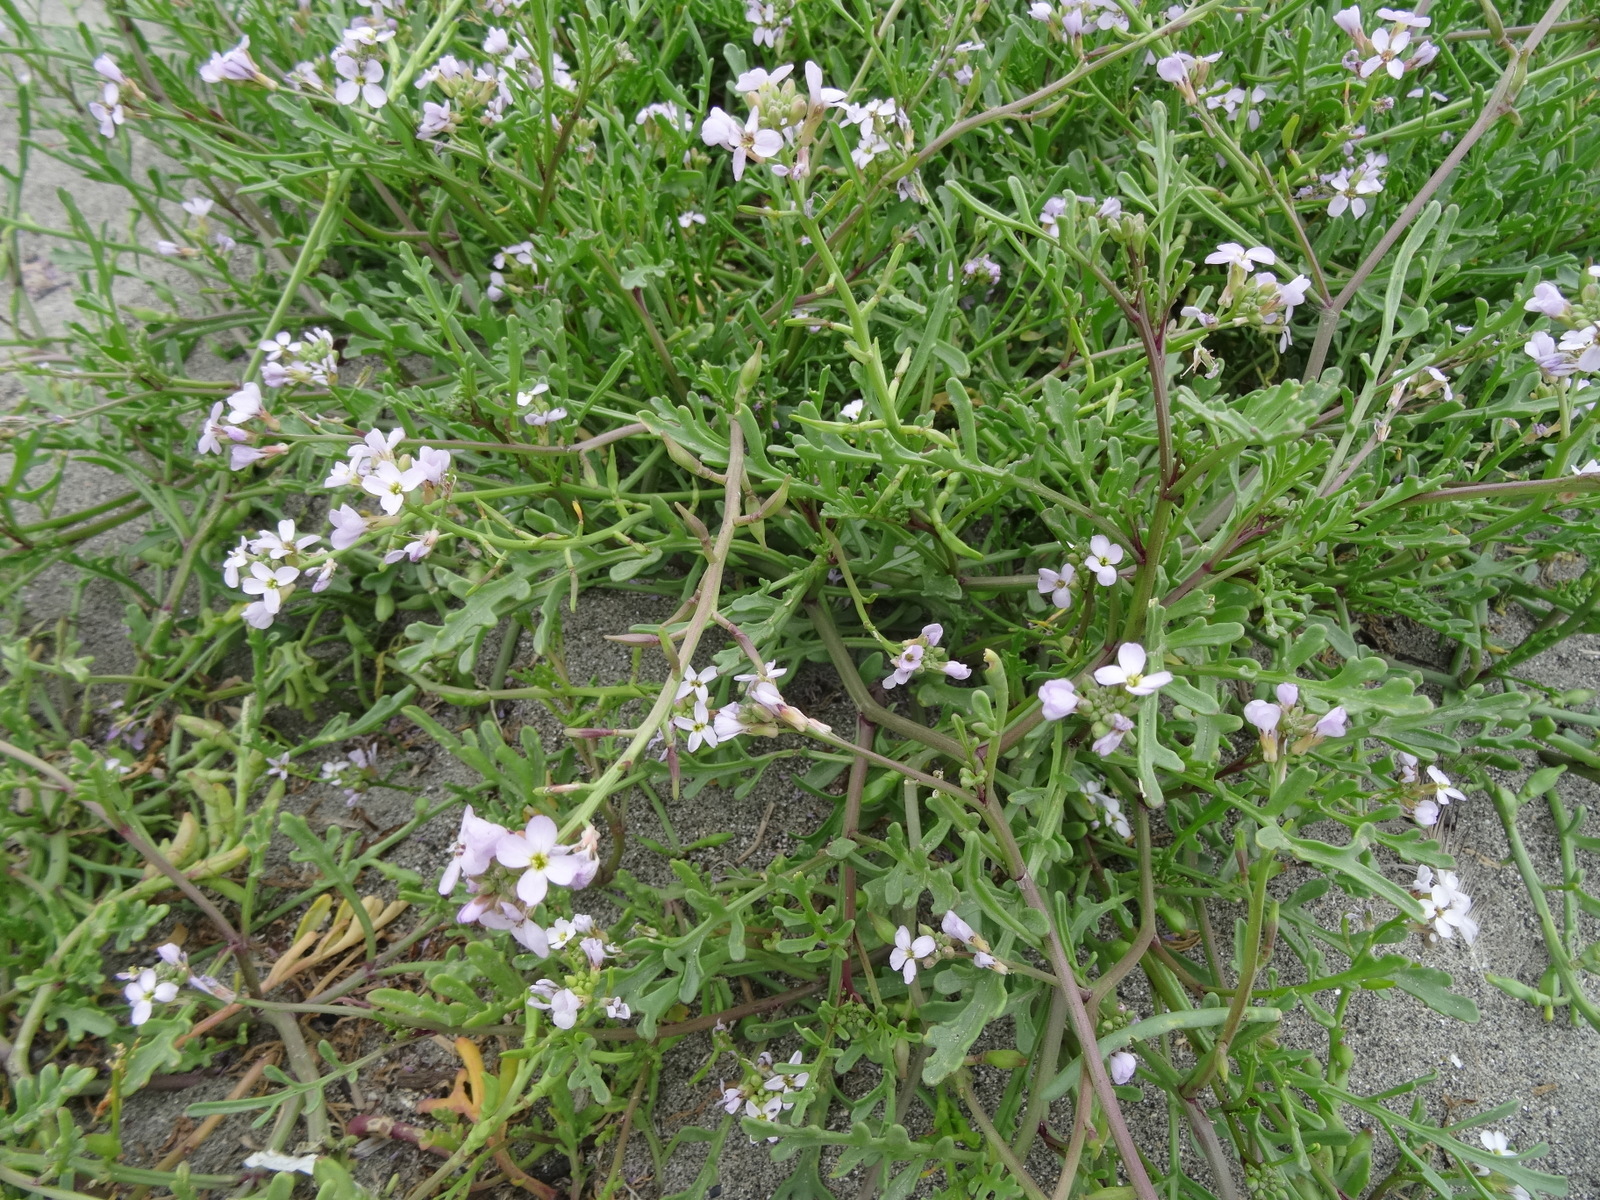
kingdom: Plantae
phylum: Tracheophyta
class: Magnoliopsida
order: Brassicales
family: Brassicaceae
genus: Cakile
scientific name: Cakile maritima
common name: Sea rocket
